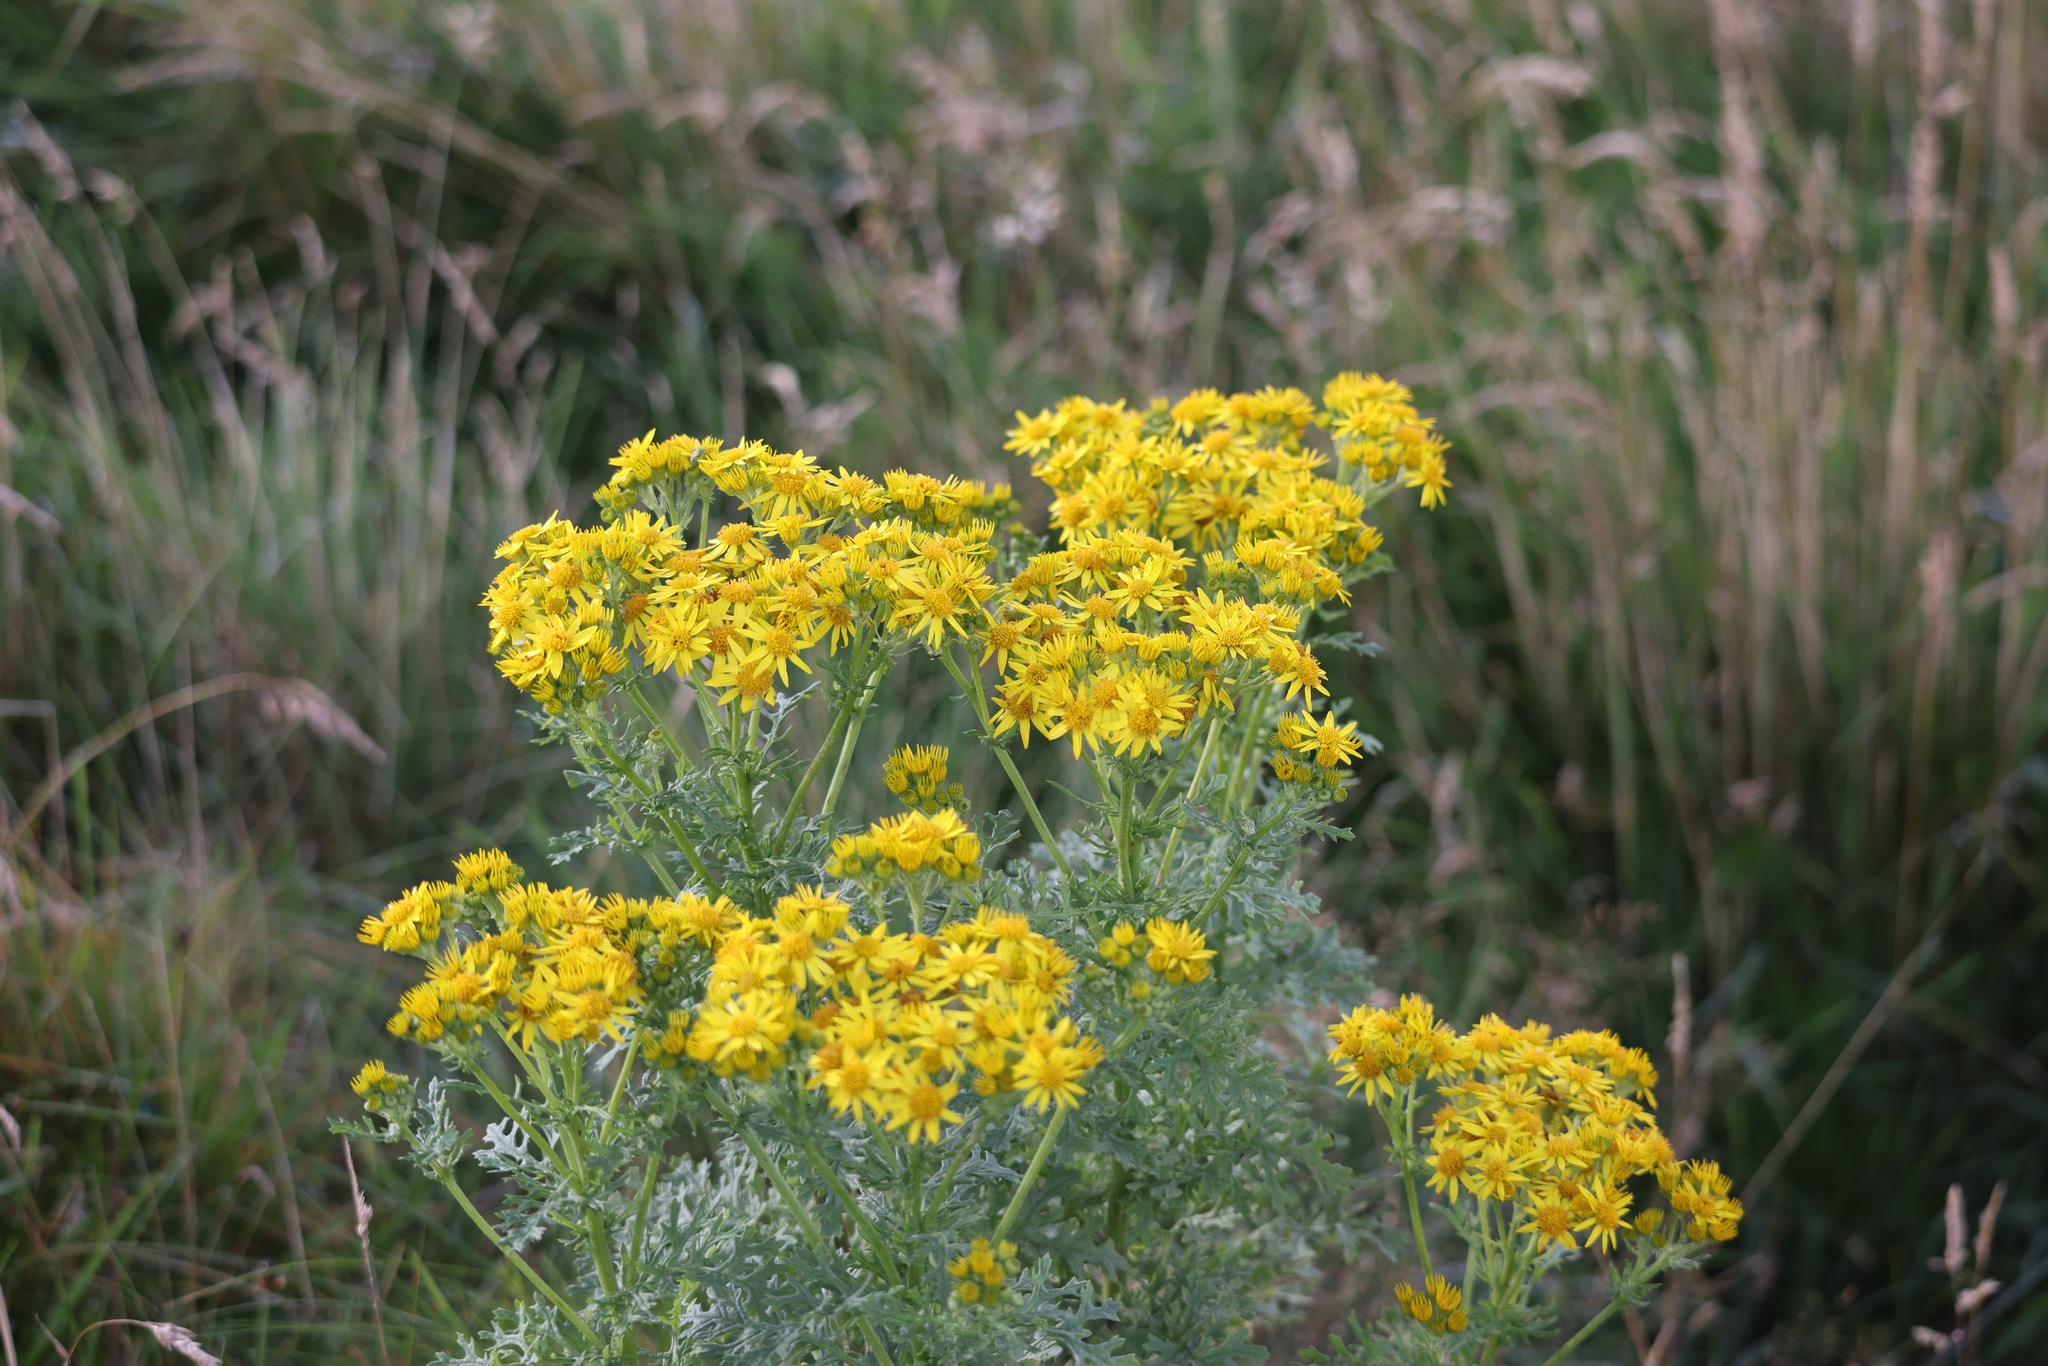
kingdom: Plantae
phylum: Tracheophyta
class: Magnoliopsida
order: Asterales
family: Asteraceae
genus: Jacobaea
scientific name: Jacobaea vulgaris
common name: Stinking willie
